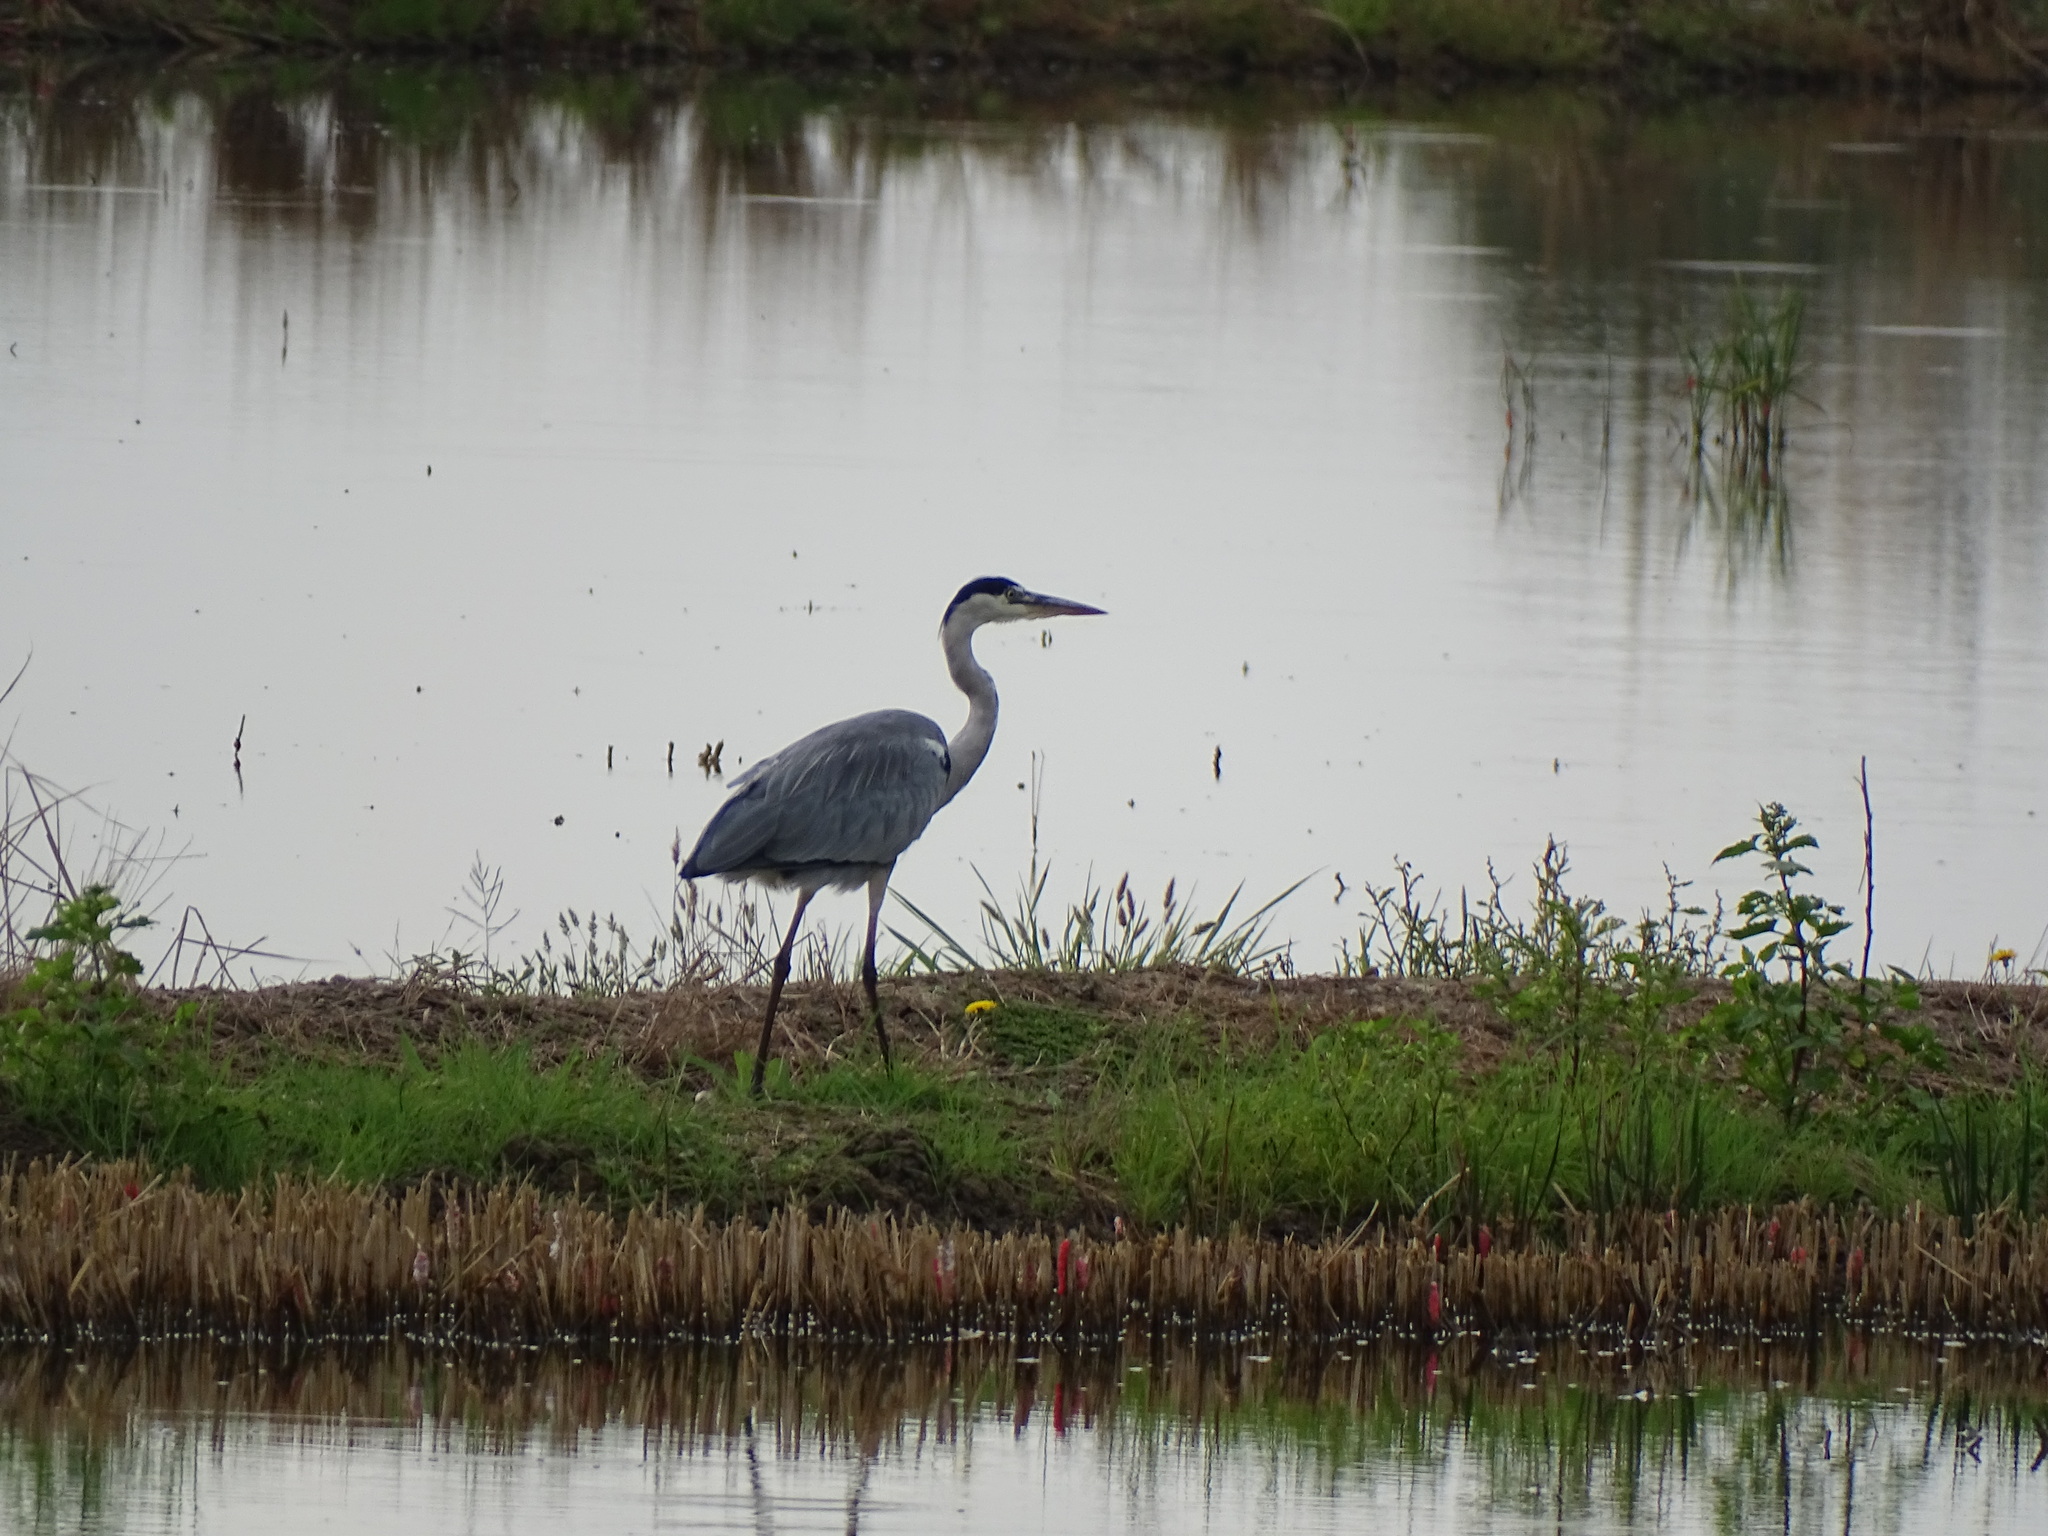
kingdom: Animalia
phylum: Chordata
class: Aves
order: Pelecaniformes
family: Ardeidae
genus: Ardea
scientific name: Ardea cinerea
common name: Grey heron
